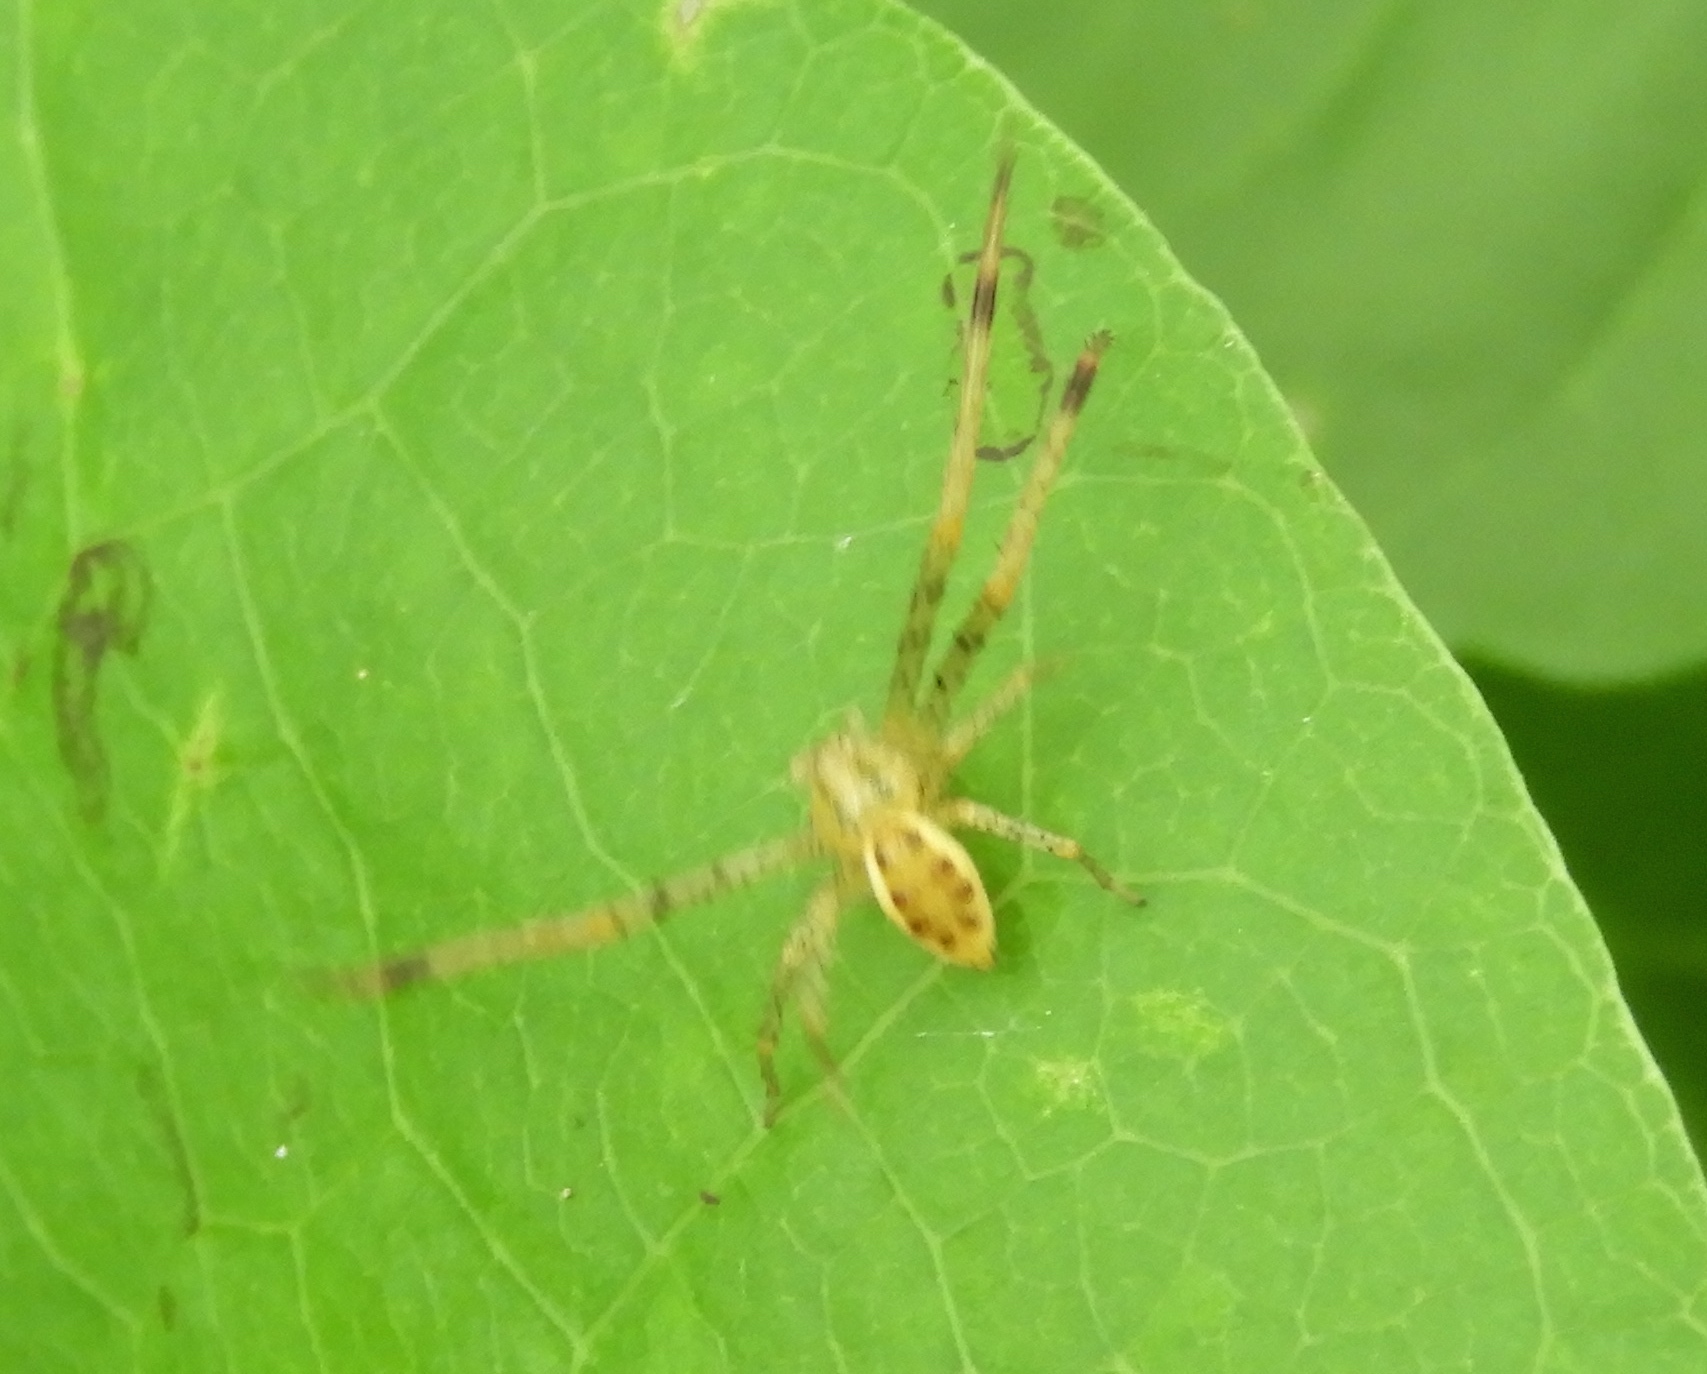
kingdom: Animalia
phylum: Arthropoda
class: Arachnida
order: Araneae
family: Thomisidae
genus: Isaloides
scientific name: Isaloides
